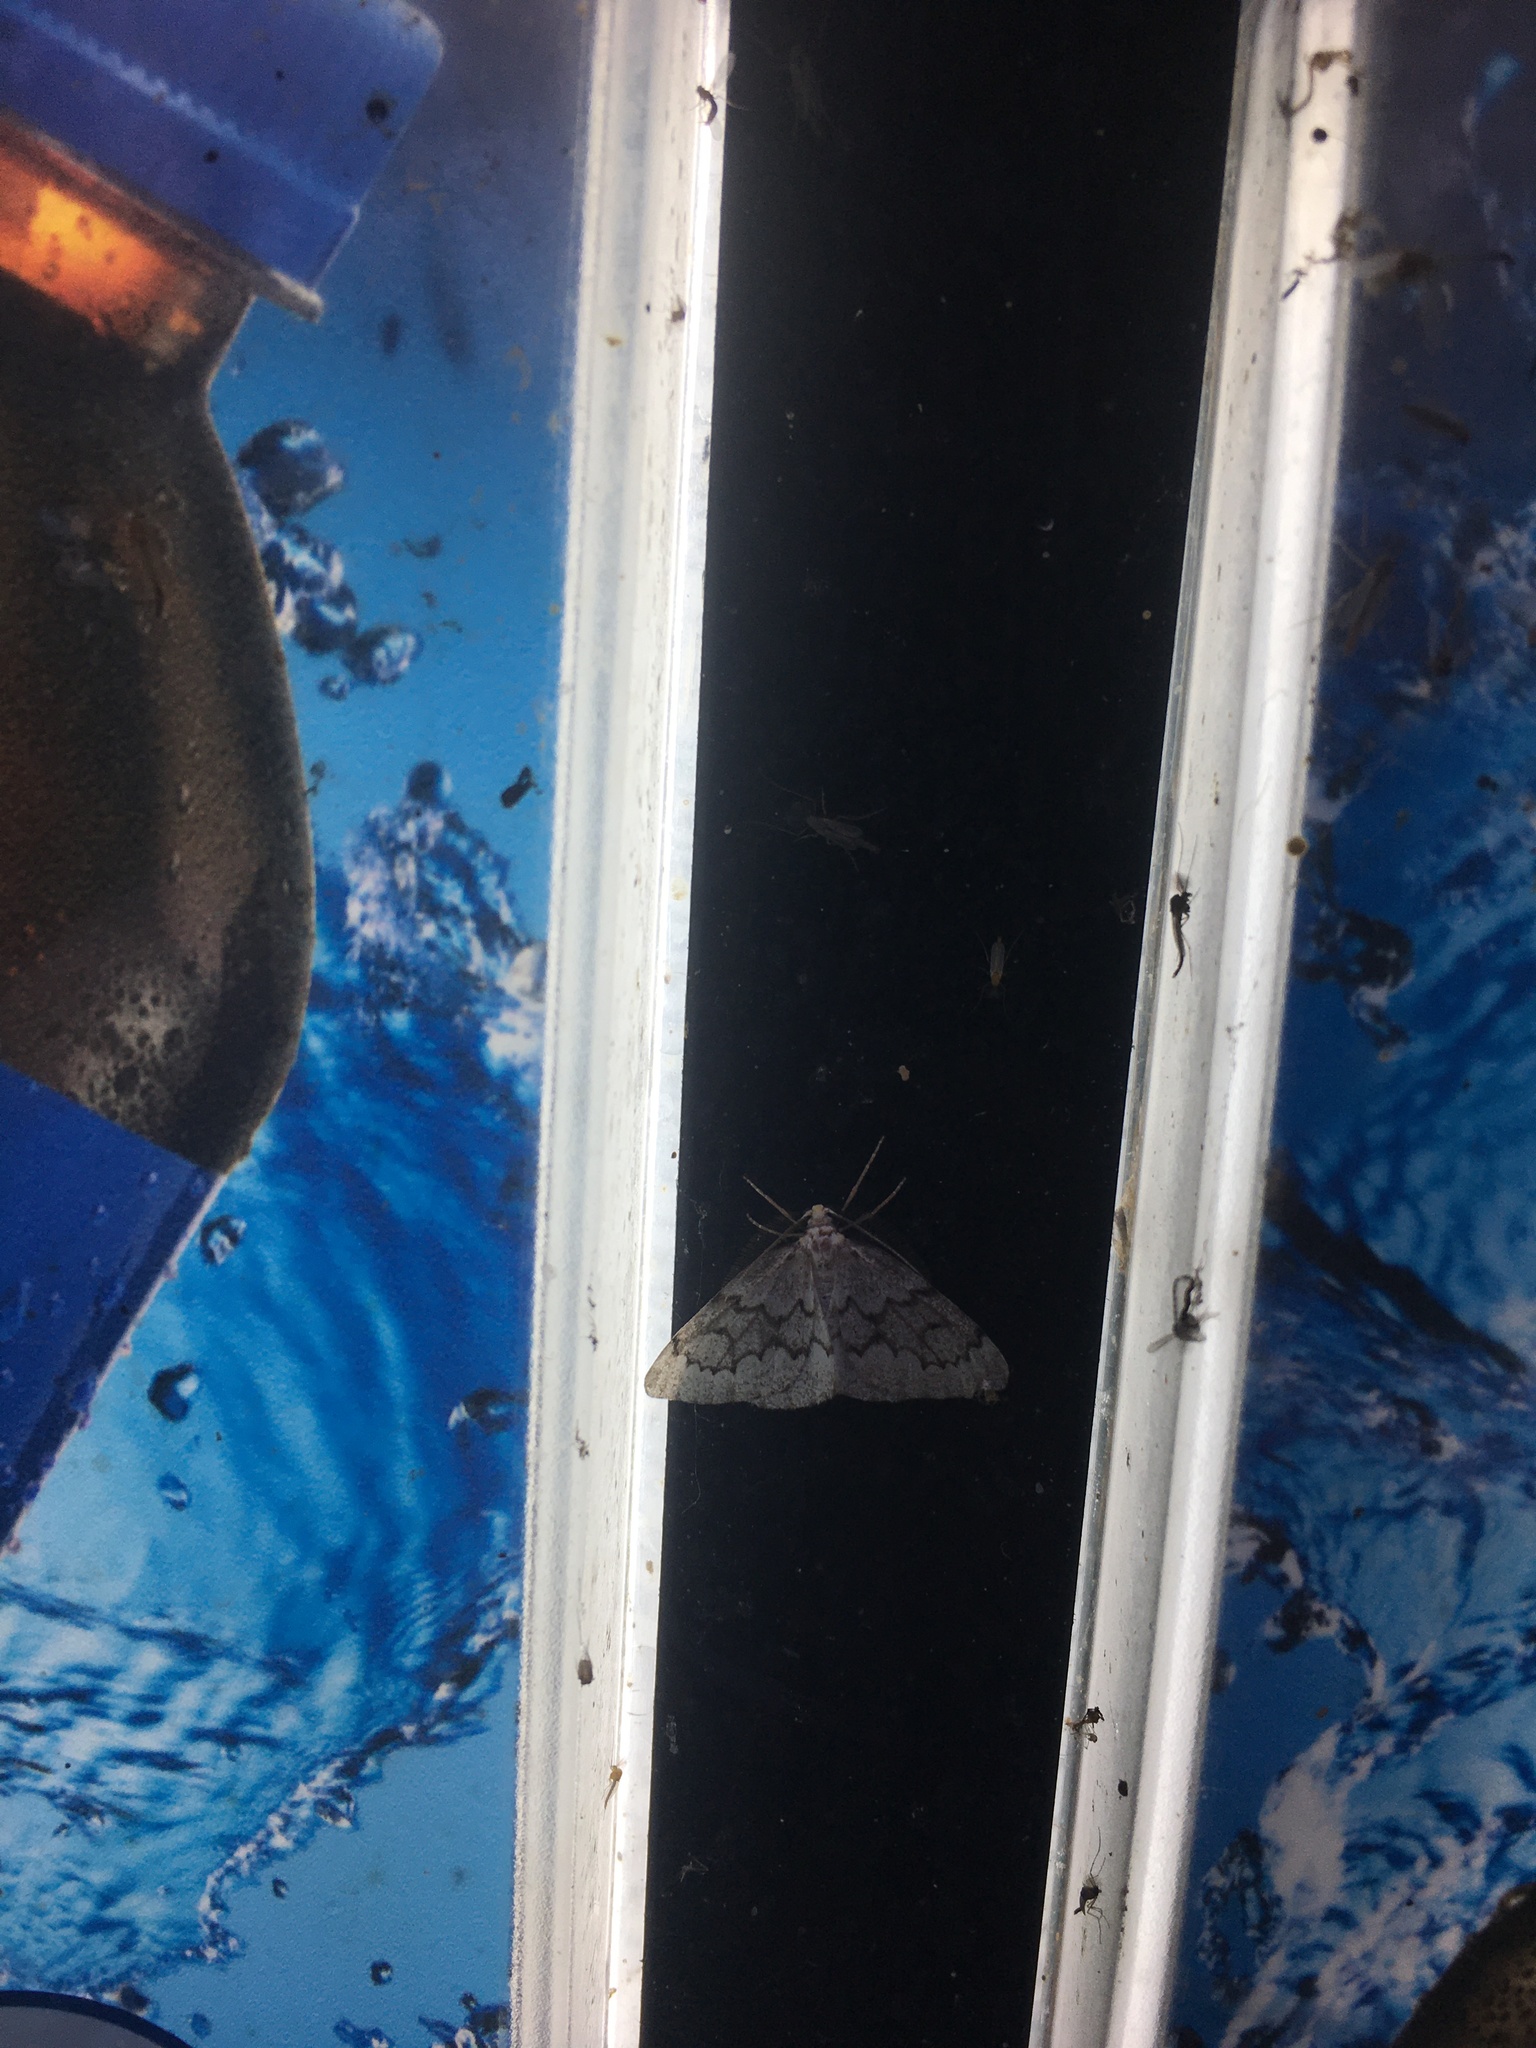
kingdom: Animalia
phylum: Arthropoda
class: Insecta
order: Lepidoptera
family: Geometridae
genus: Nepytia
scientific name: Nepytia canosaria
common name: False hemlock looper
